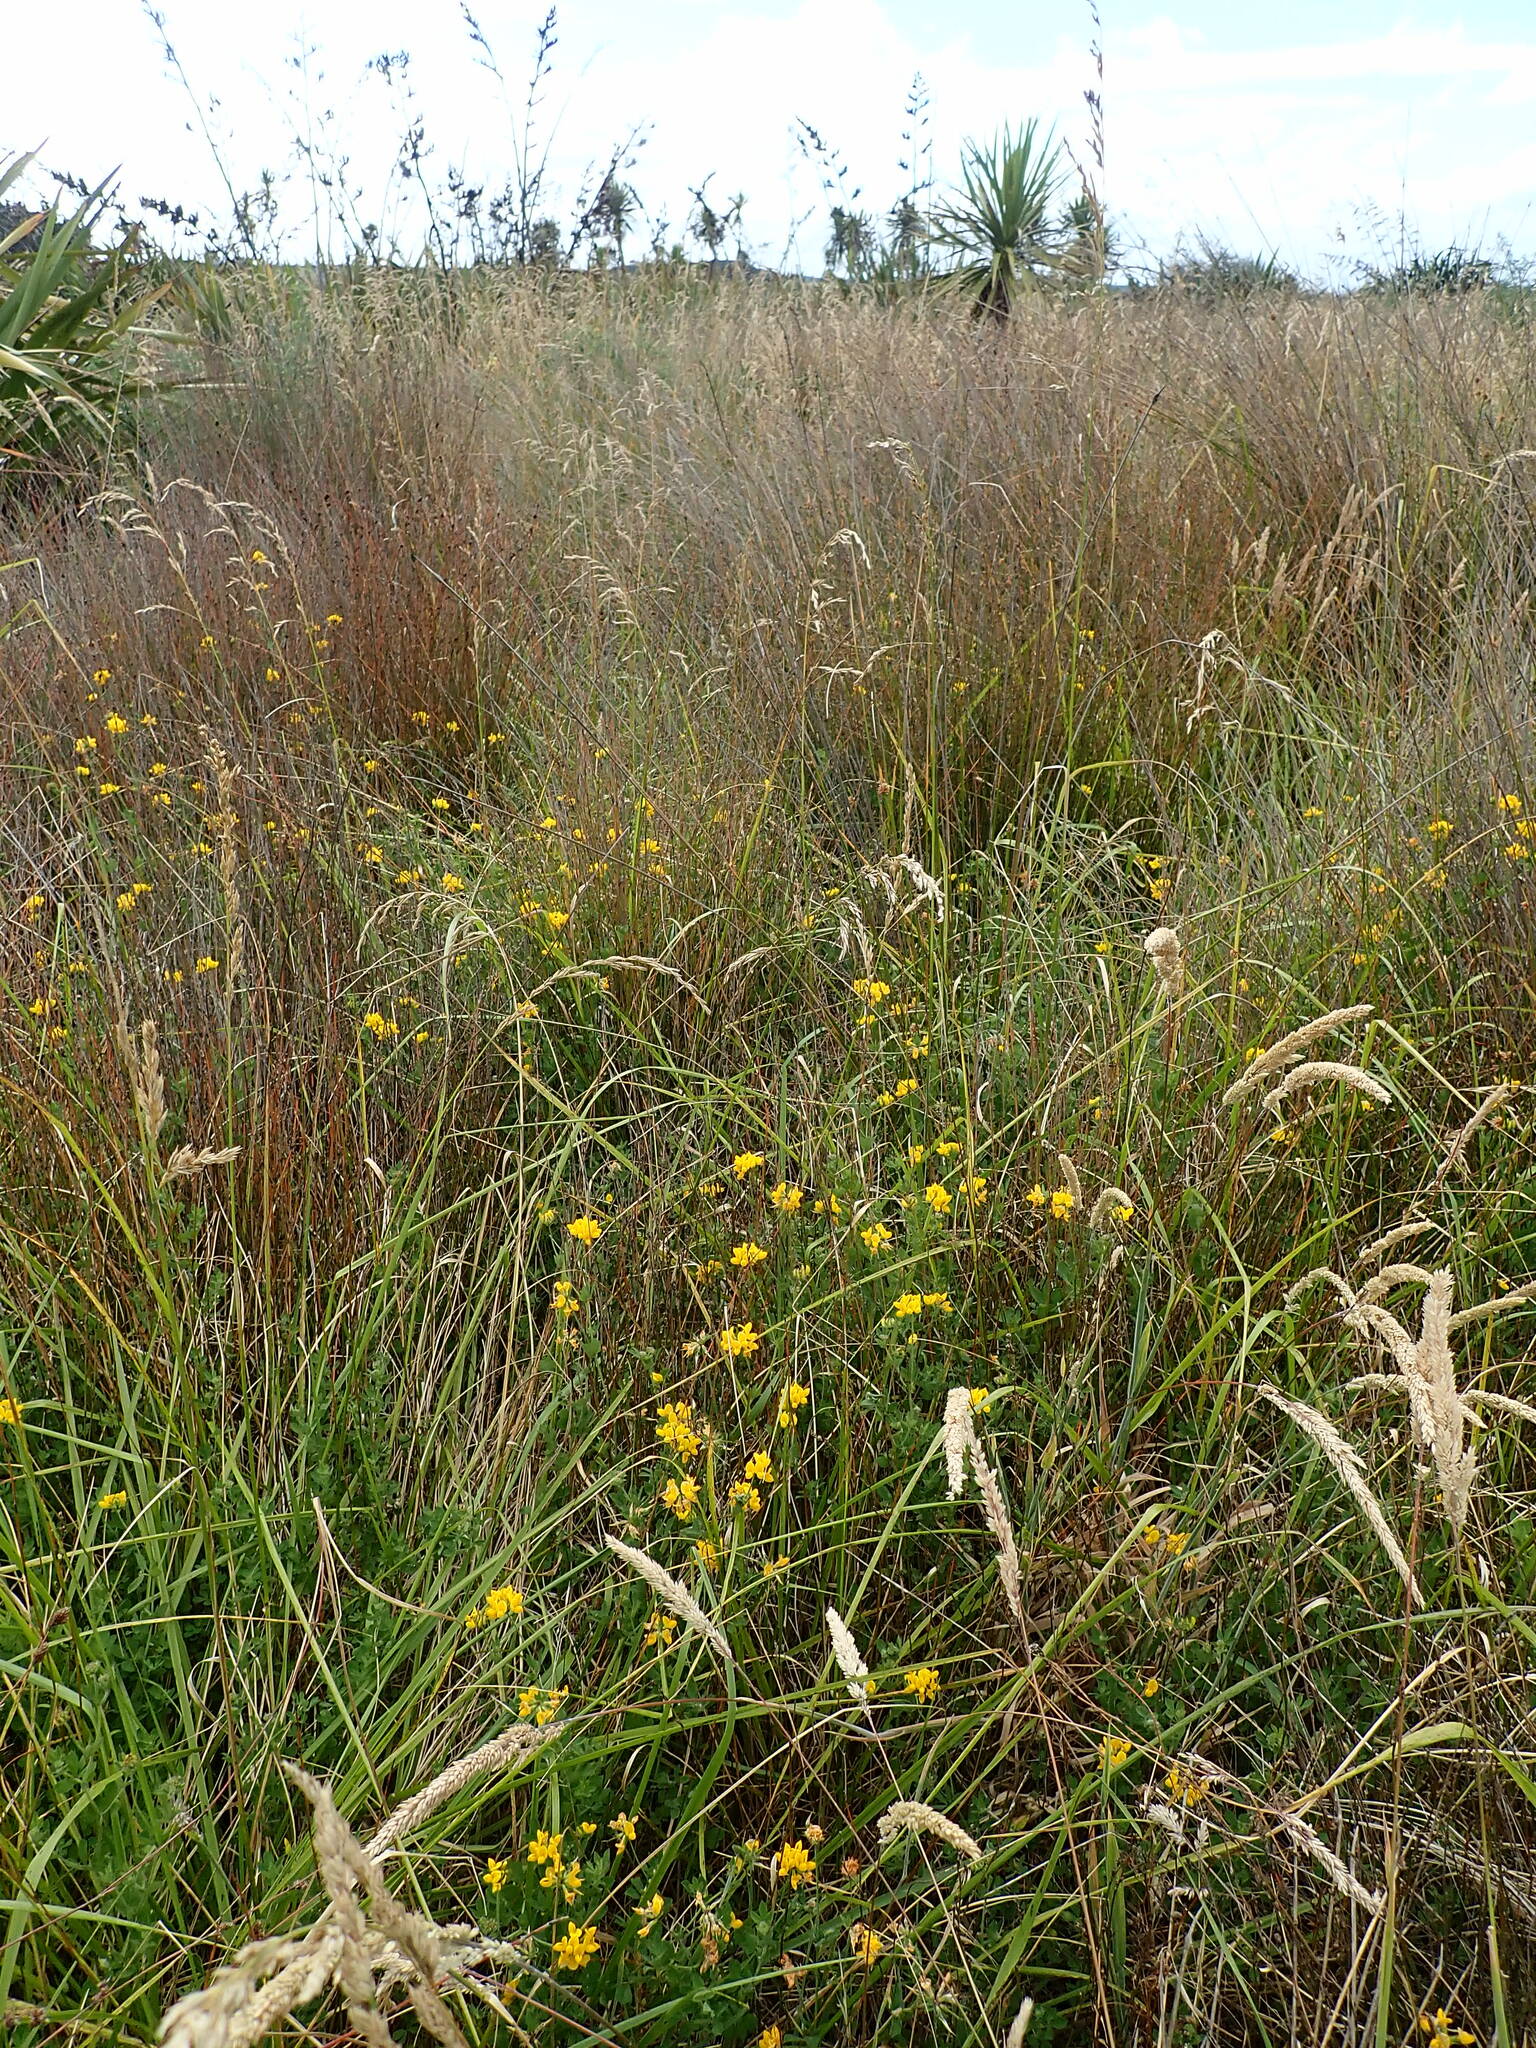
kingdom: Plantae
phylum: Tracheophyta
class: Magnoliopsida
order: Fabales
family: Fabaceae
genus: Lotus
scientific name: Lotus pedunculatus
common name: Greater birdsfoot-trefoil
